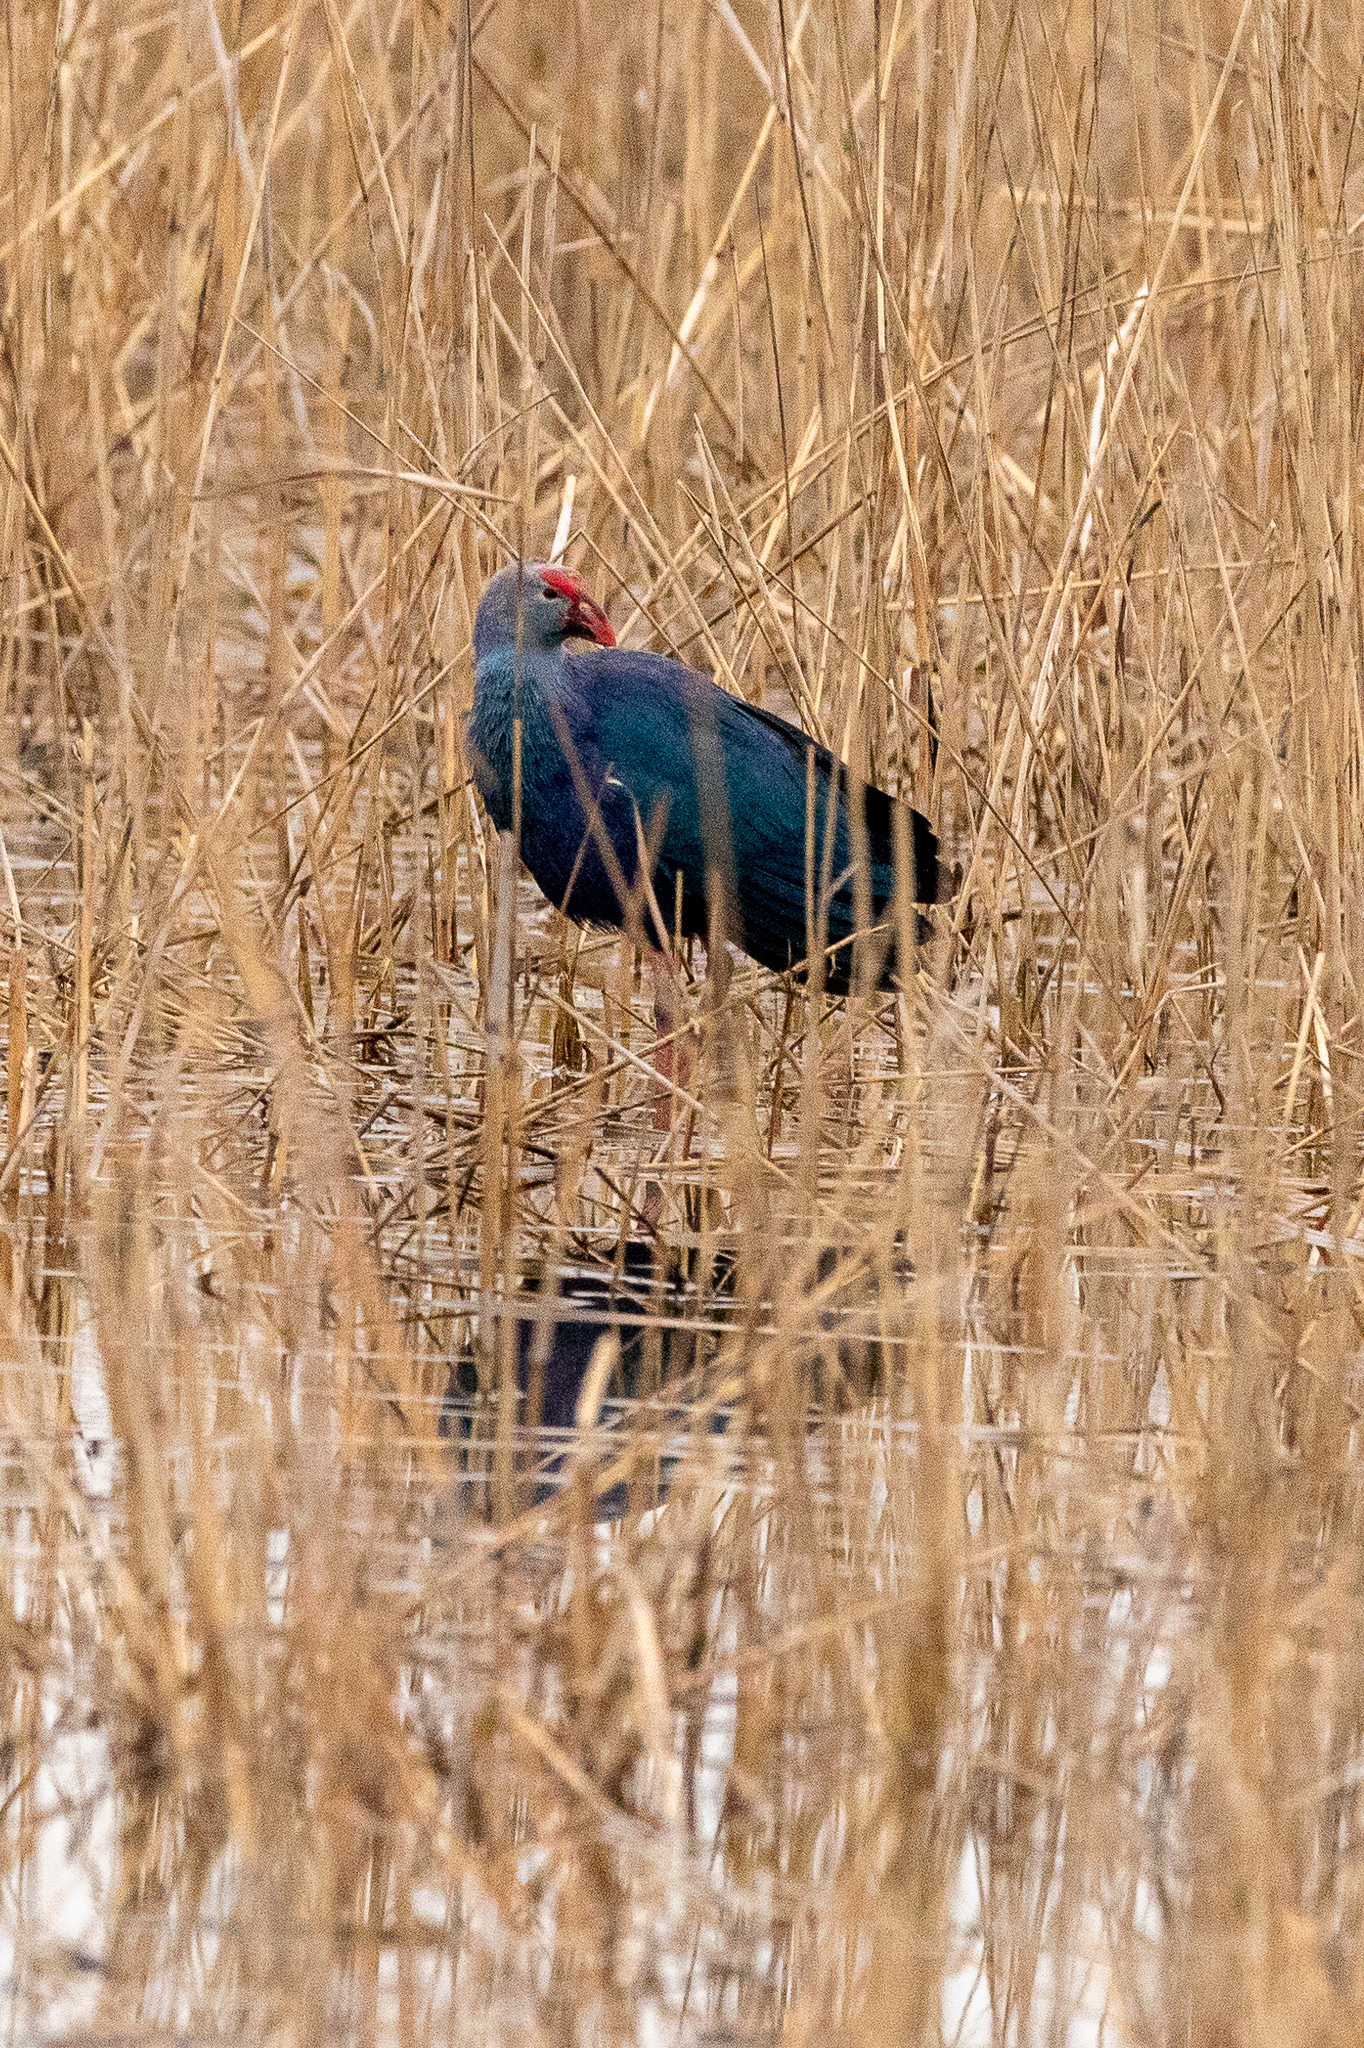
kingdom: Animalia
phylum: Chordata
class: Aves
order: Gruiformes
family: Rallidae
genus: Porphyrio
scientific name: Porphyrio porphyrio
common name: Purple swamphen
